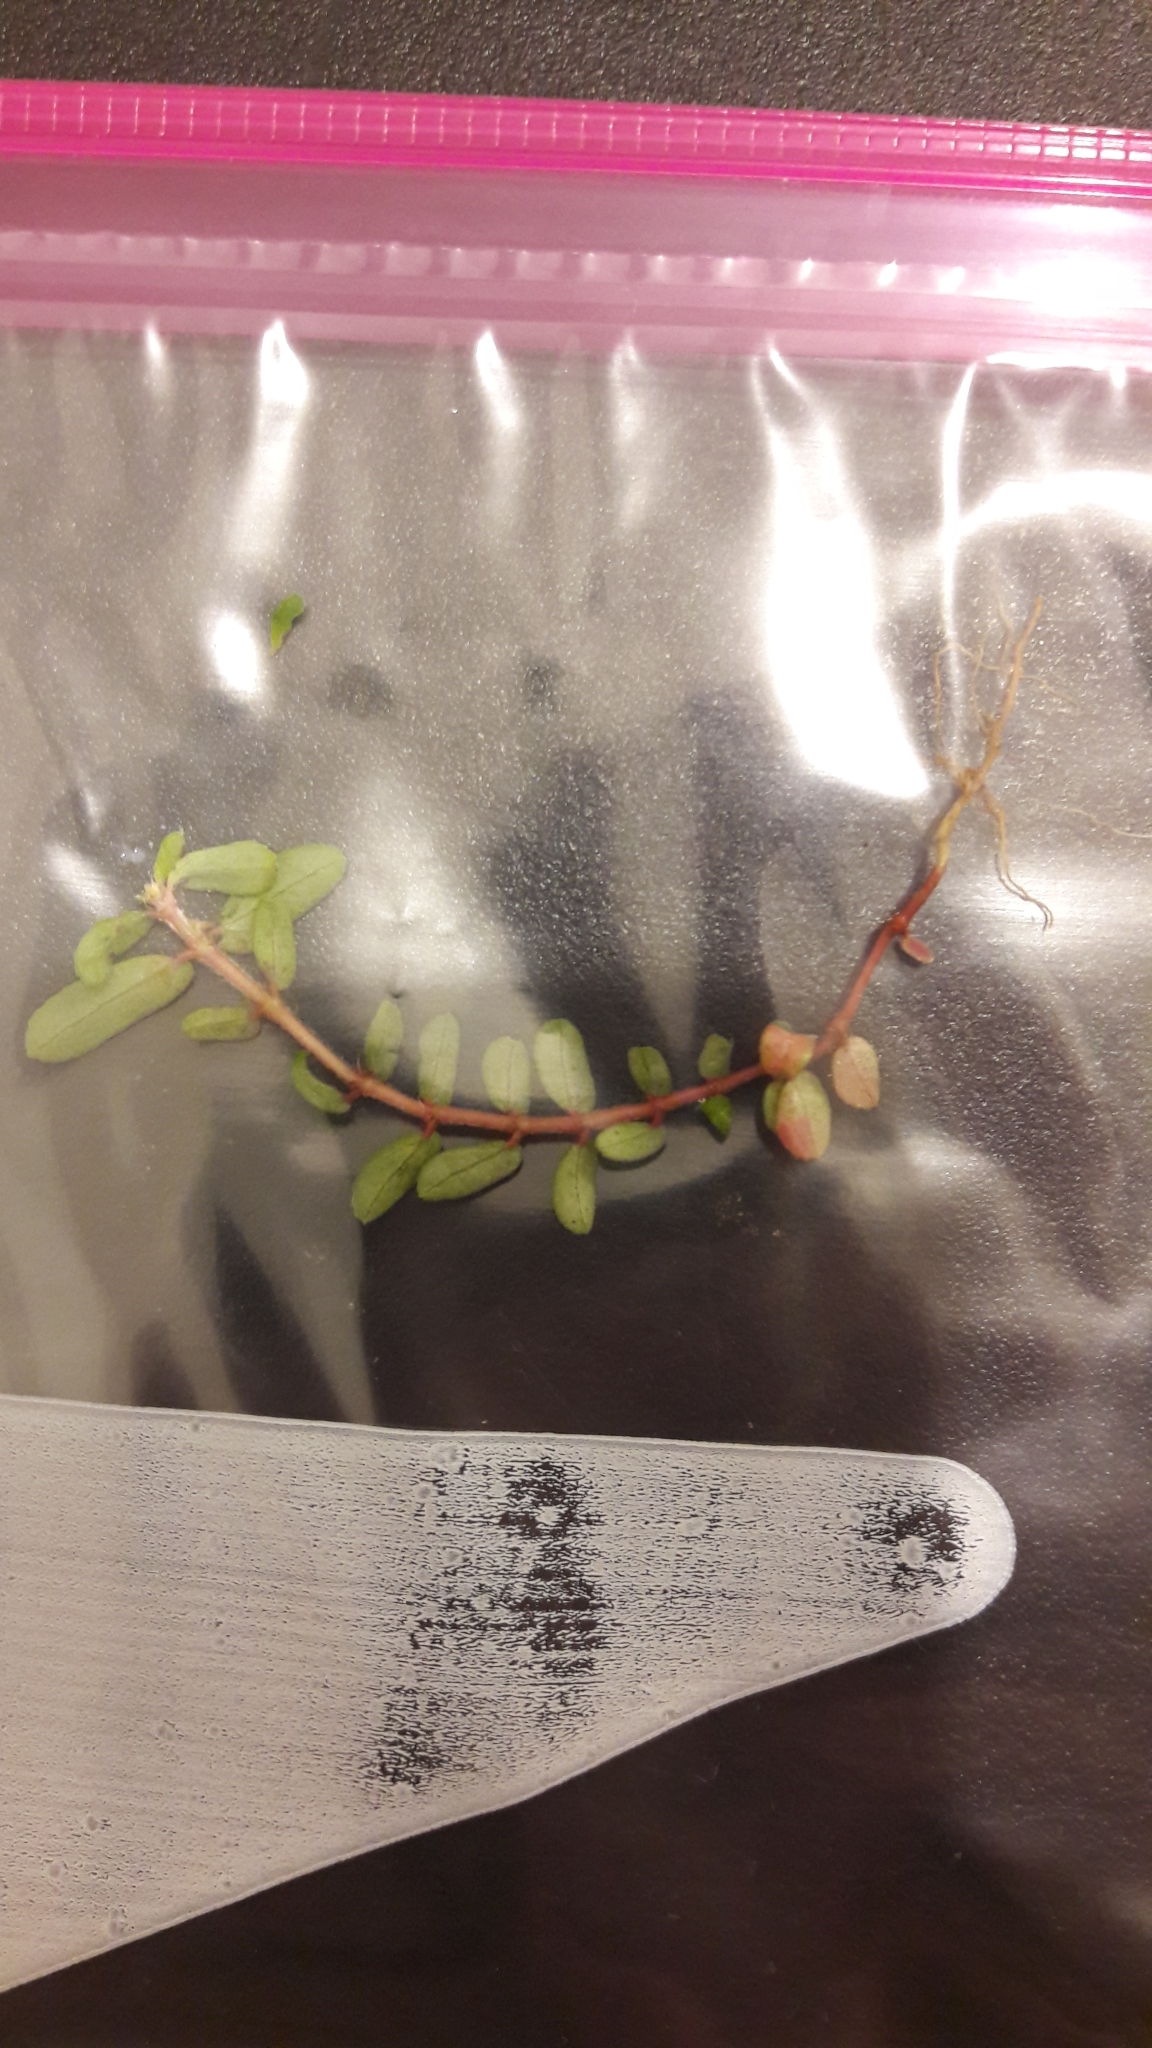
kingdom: Plantae
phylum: Tracheophyta
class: Magnoliopsida
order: Malpighiales
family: Euphorbiaceae
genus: Euphorbia
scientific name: Euphorbia maculata
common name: Spotted spurge
